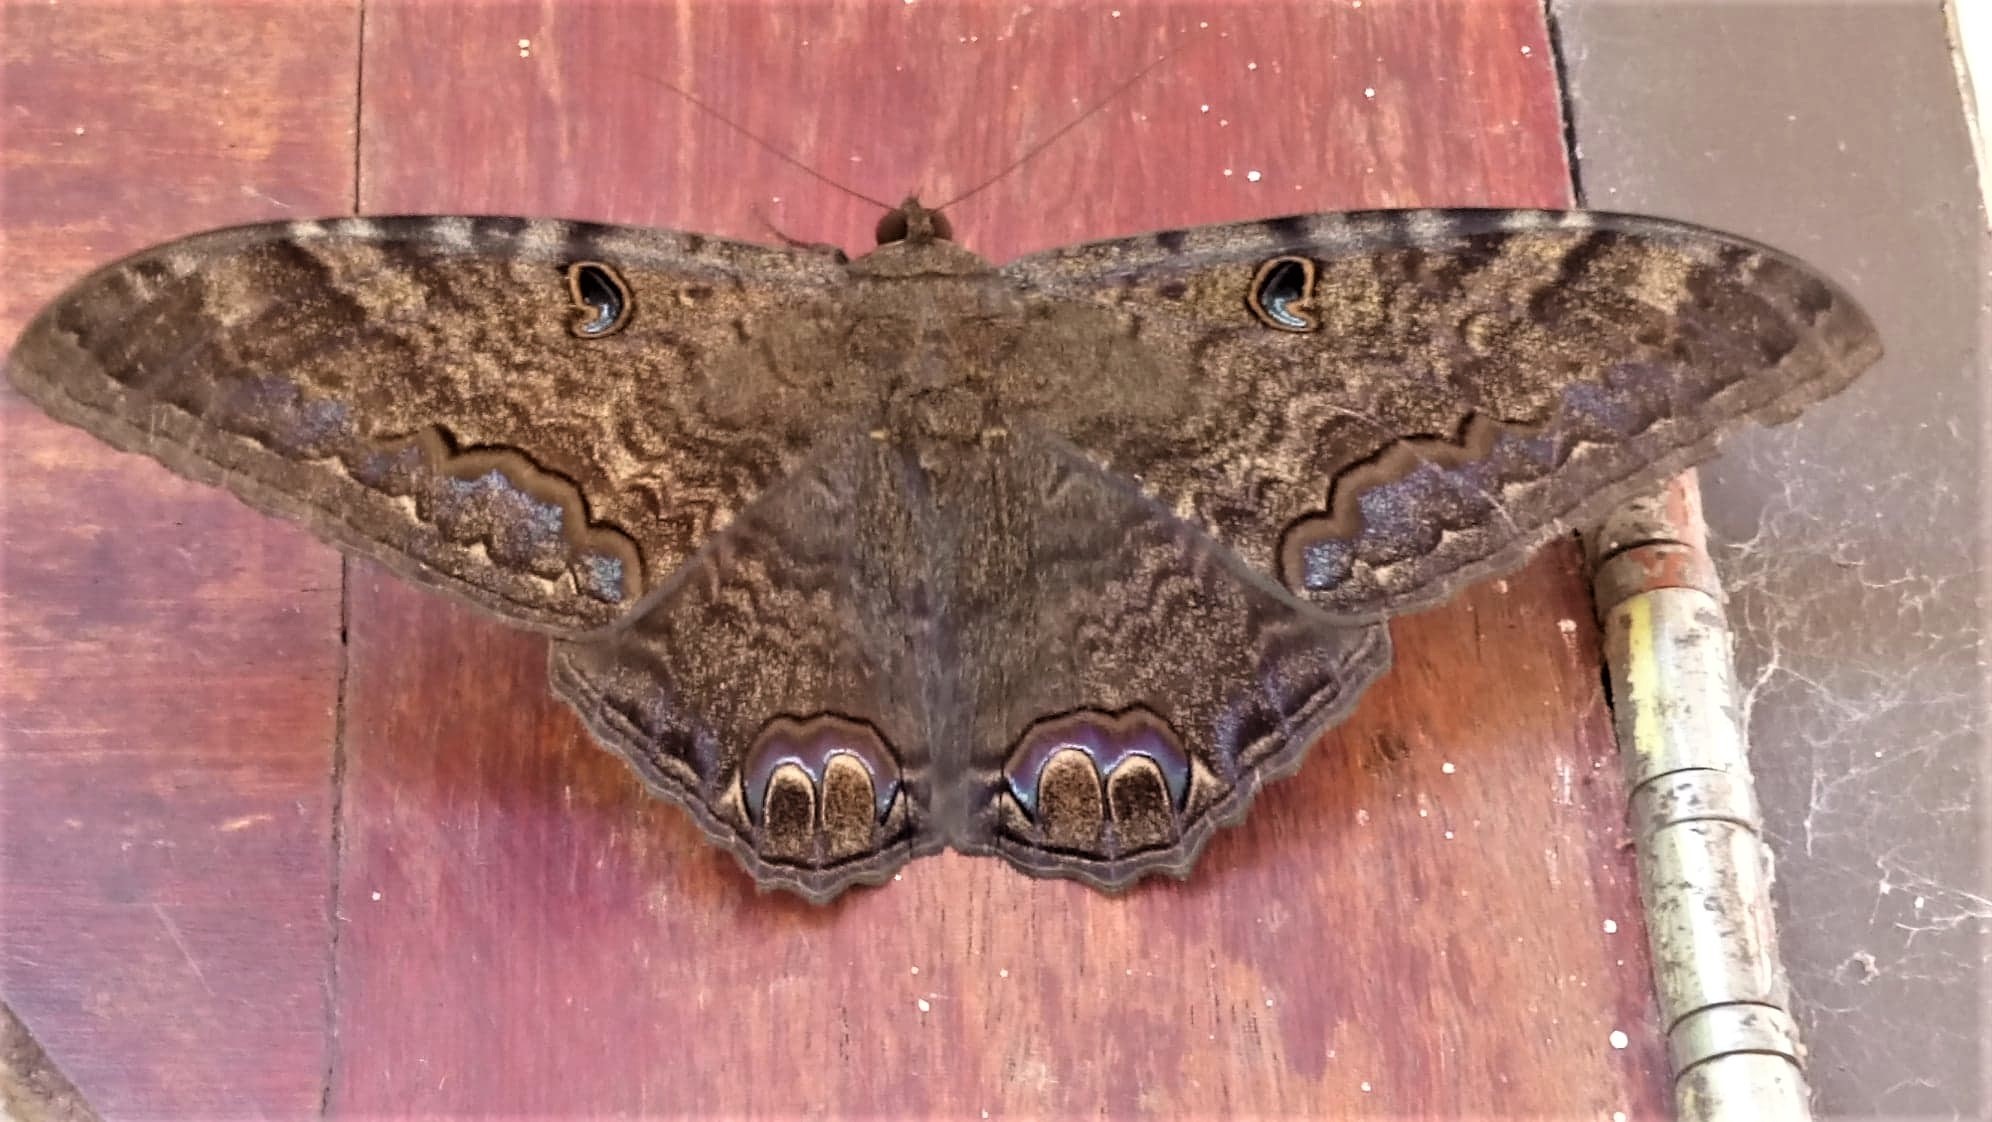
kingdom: Animalia
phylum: Arthropoda
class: Insecta
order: Lepidoptera
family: Erebidae
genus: Ascalapha
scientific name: Ascalapha odorata
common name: Black witch
